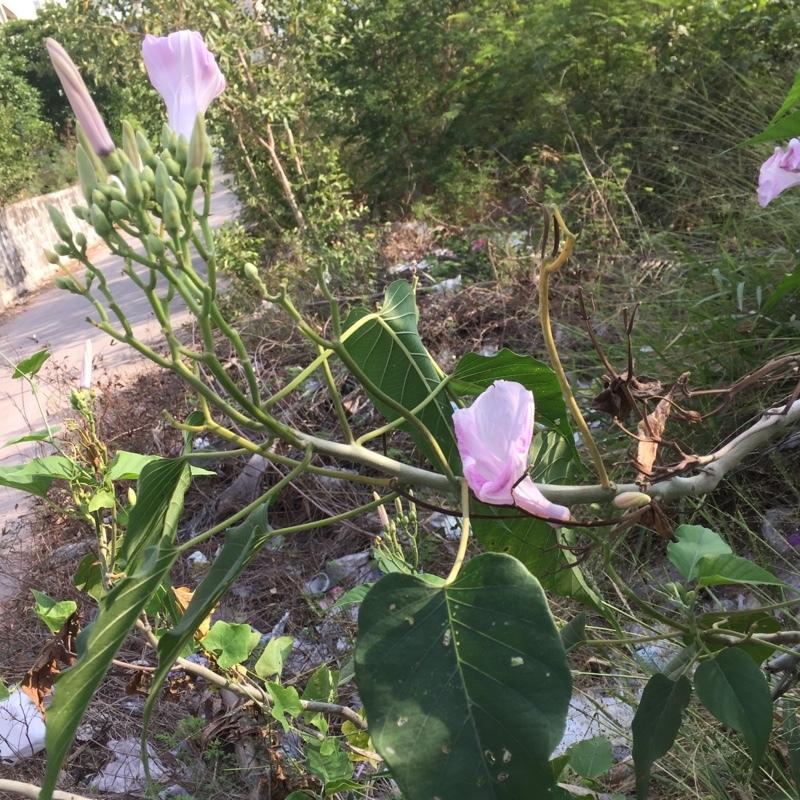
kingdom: Plantae
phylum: Tracheophyta
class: Magnoliopsida
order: Solanales
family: Convolvulaceae
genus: Ipomoea
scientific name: Ipomoea carnea
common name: Morning-glory
